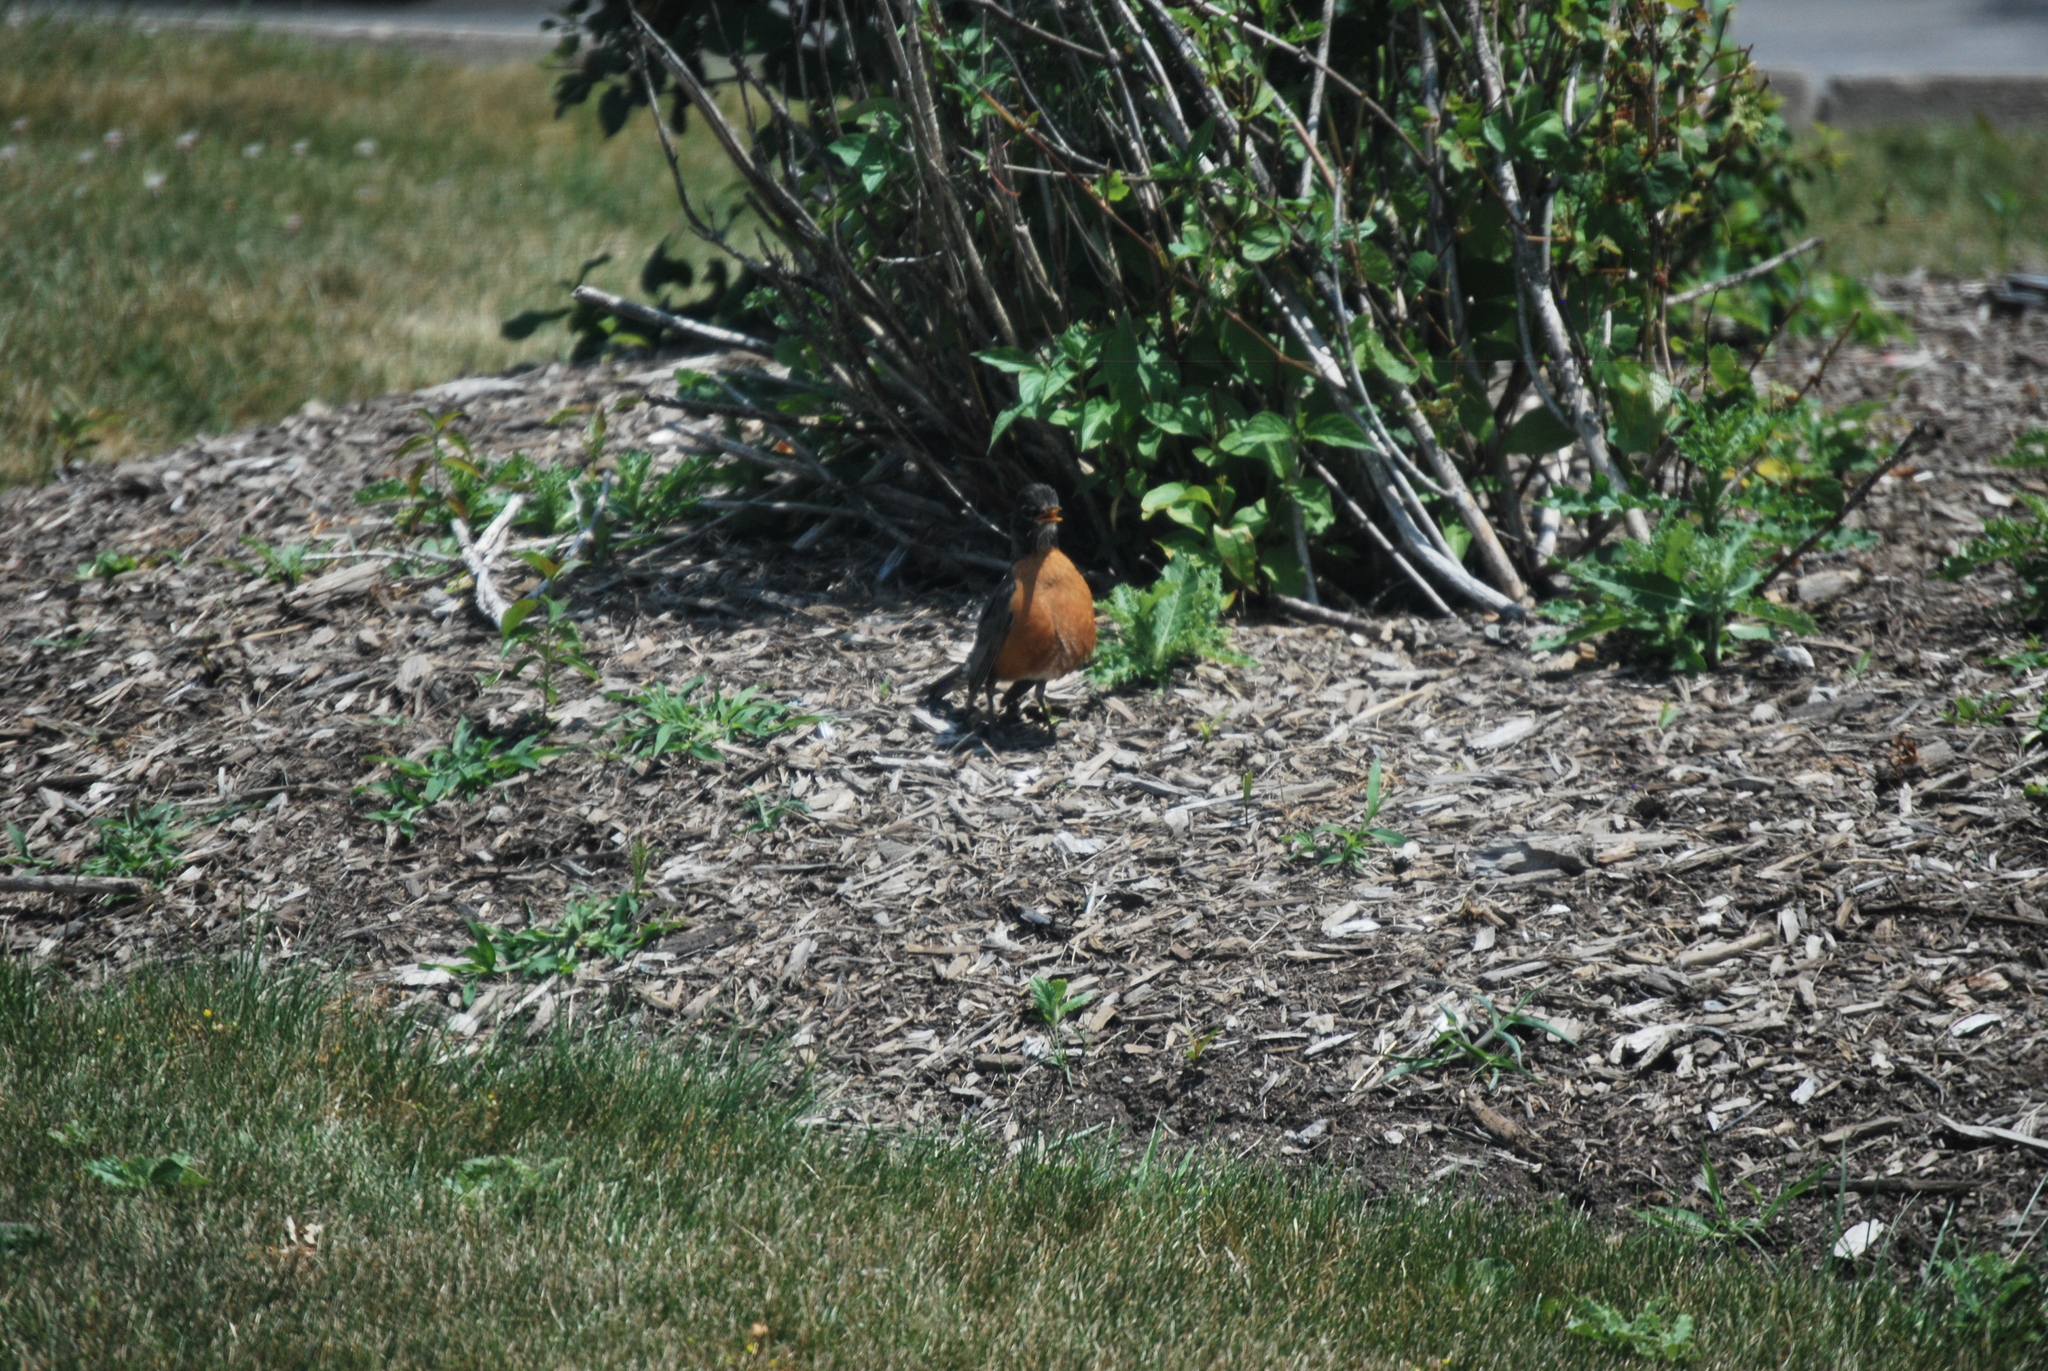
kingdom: Animalia
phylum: Chordata
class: Aves
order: Passeriformes
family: Turdidae
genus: Turdus
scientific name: Turdus migratorius
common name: American robin
